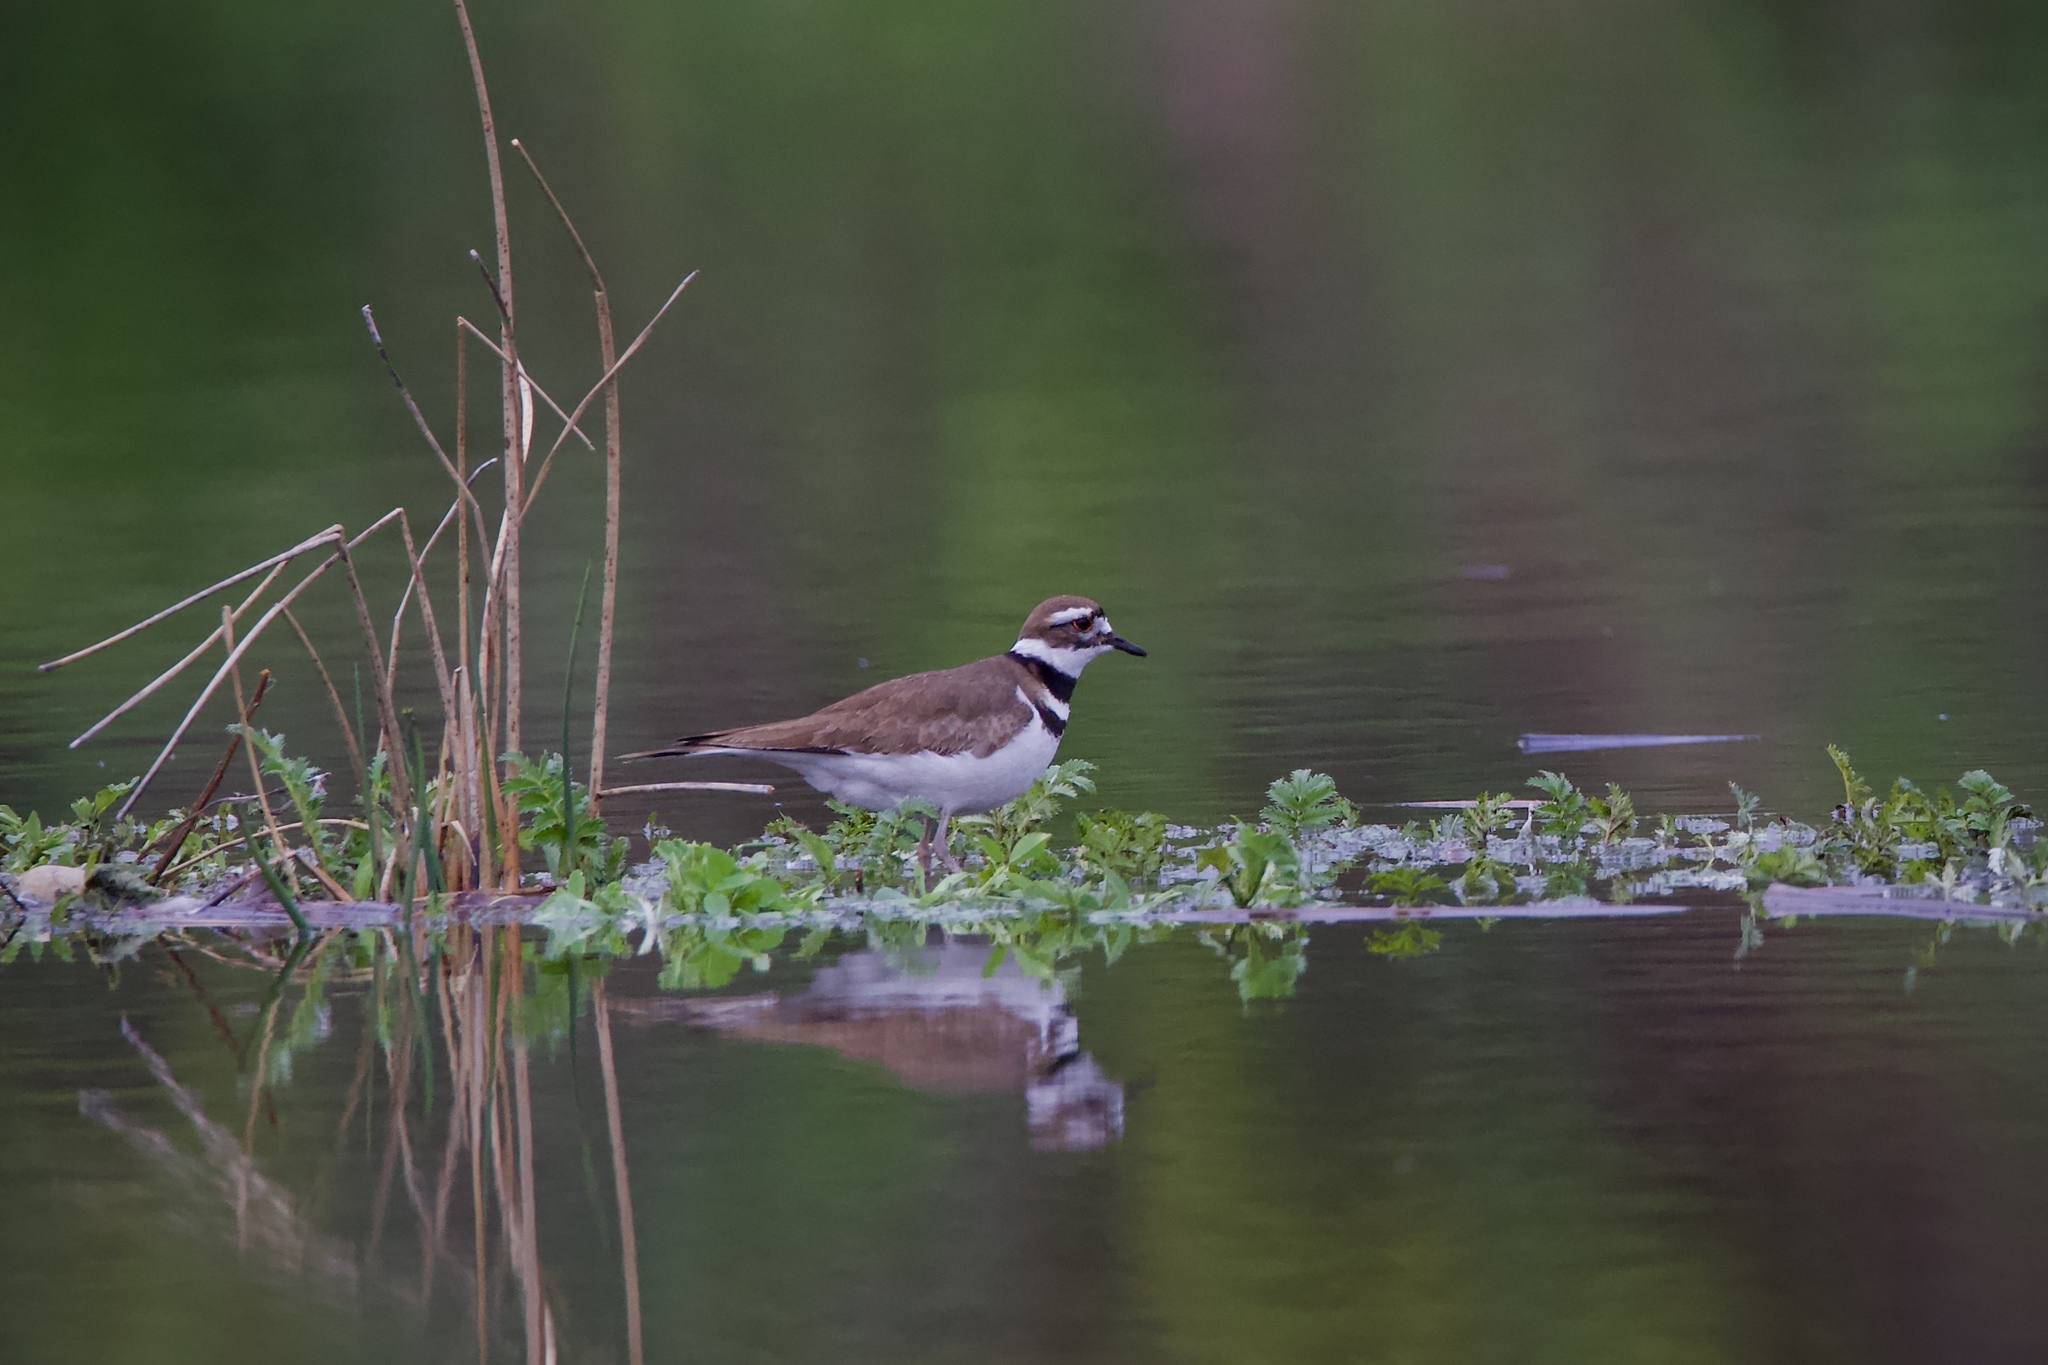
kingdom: Animalia
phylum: Chordata
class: Aves
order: Charadriiformes
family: Charadriidae
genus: Charadrius
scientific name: Charadrius vociferus
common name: Killdeer
